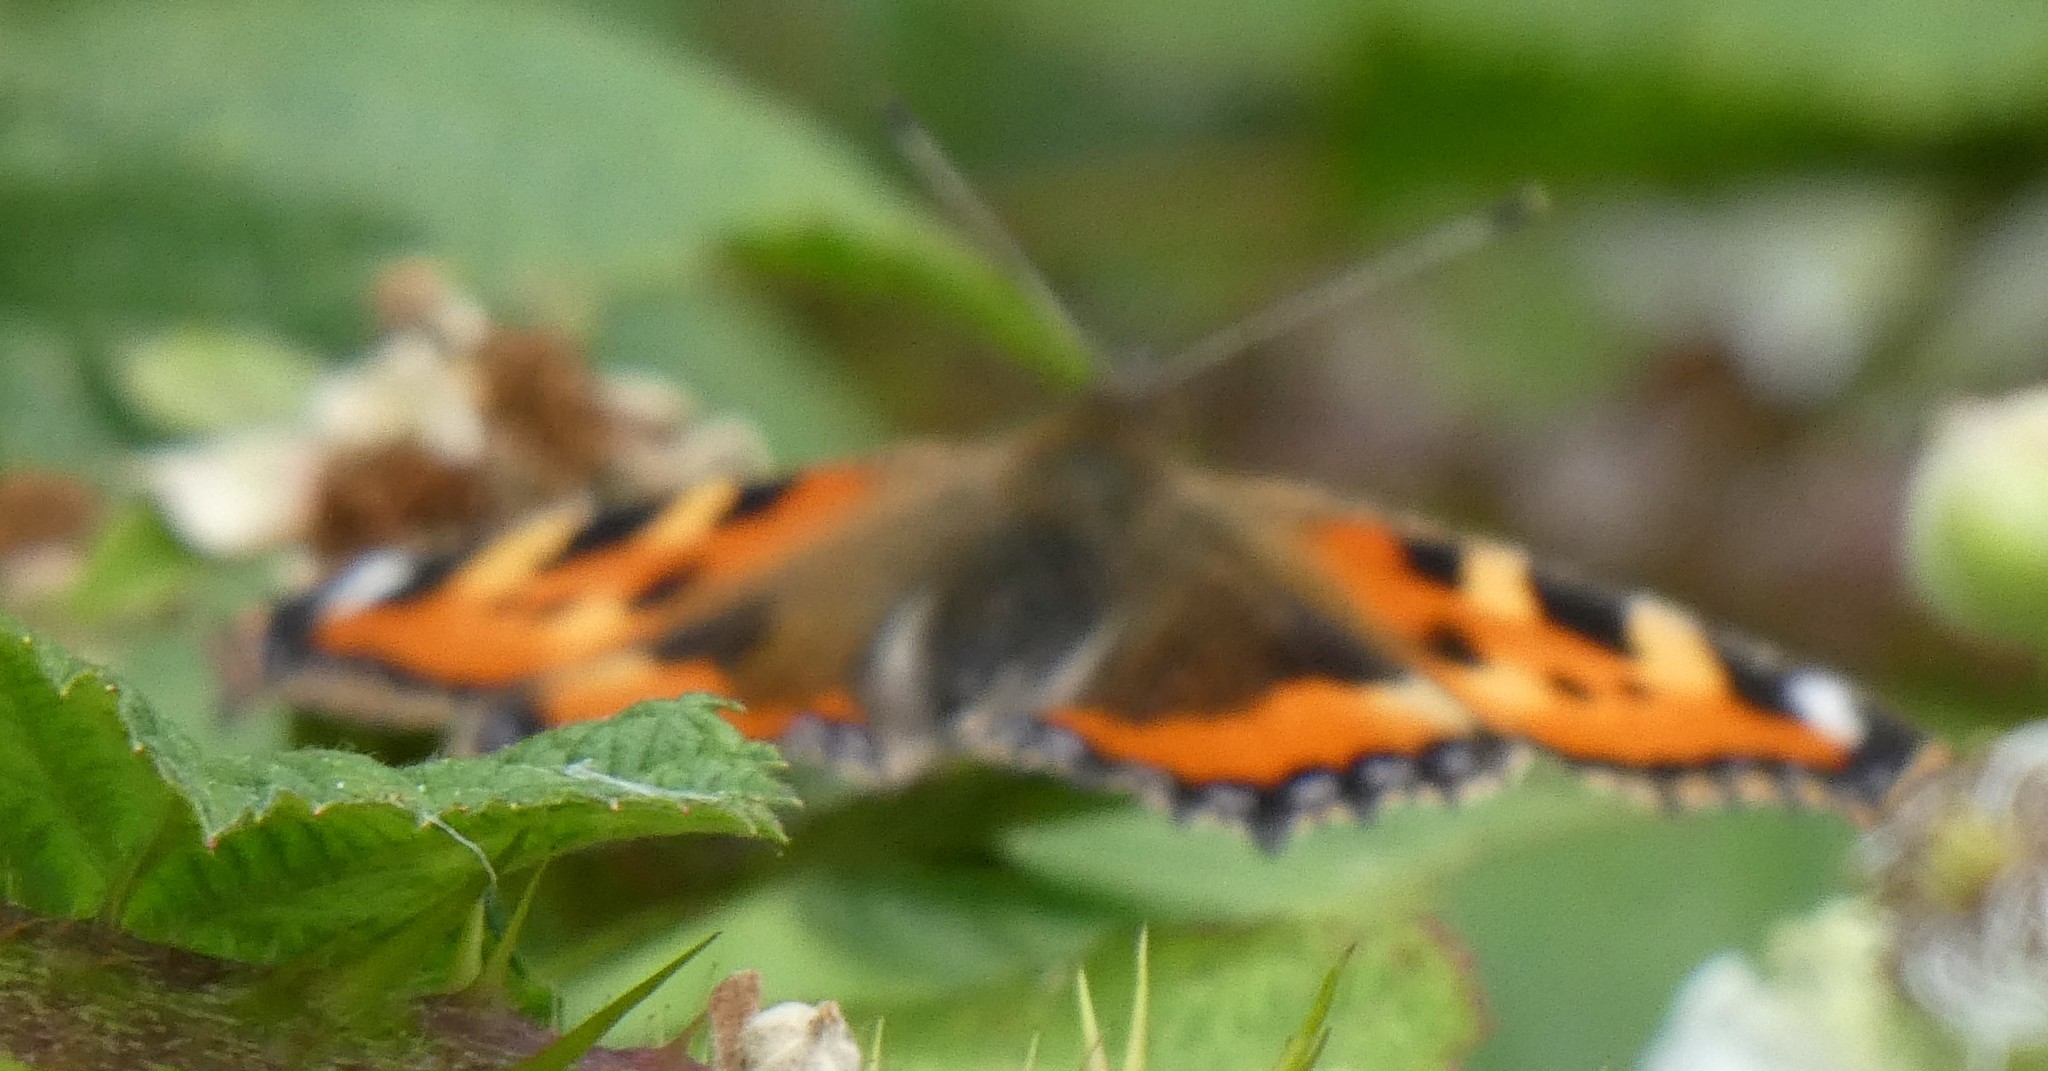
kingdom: Animalia
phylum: Arthropoda
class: Insecta
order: Lepidoptera
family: Nymphalidae
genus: Aglais
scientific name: Aglais urticae
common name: Small tortoiseshell
